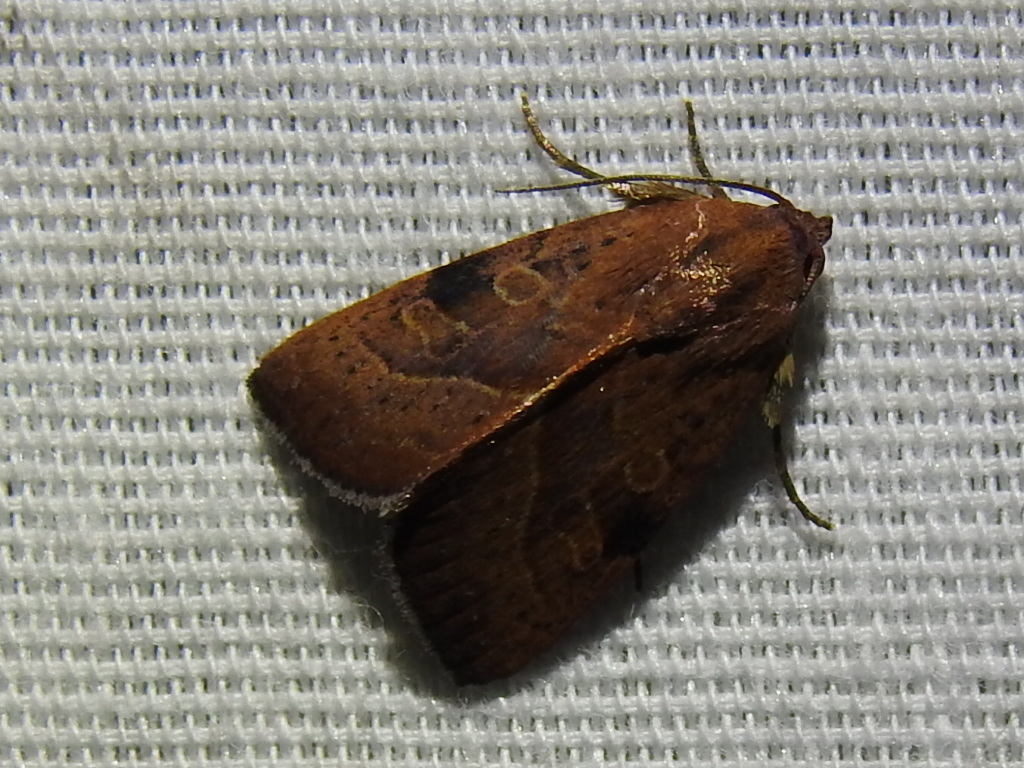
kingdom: Animalia
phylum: Arthropoda
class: Insecta
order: Lepidoptera
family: Noctuidae
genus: Galgula
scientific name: Galgula partita
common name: Wedgeling
